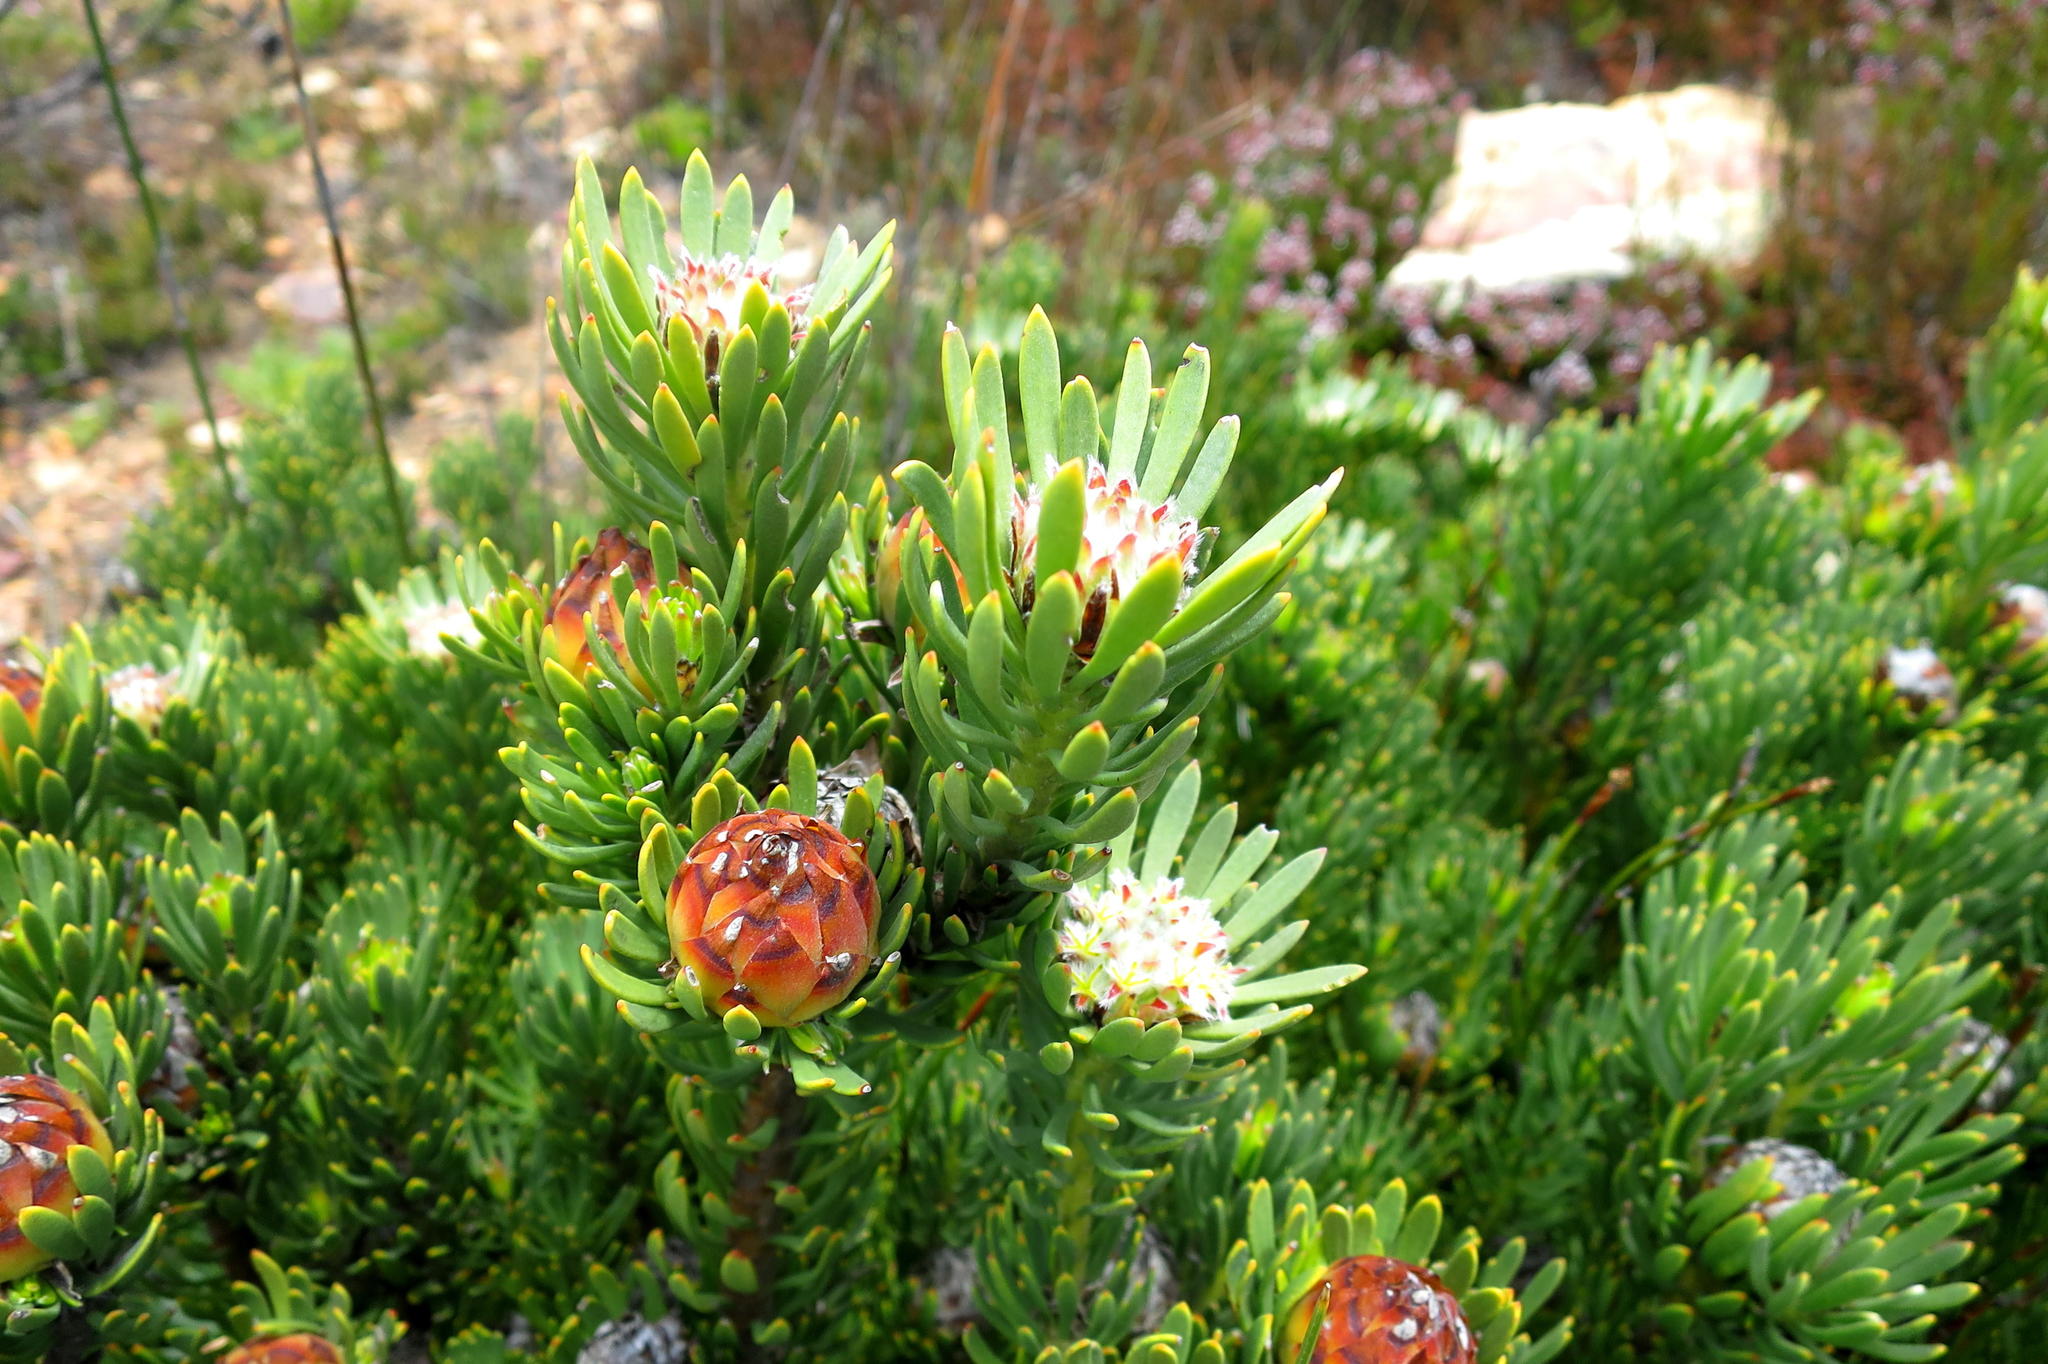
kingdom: Plantae
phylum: Tracheophyta
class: Magnoliopsida
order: Proteales
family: Proteaceae
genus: Leucadendron
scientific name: Leucadendron dregei
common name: Summit conebush
